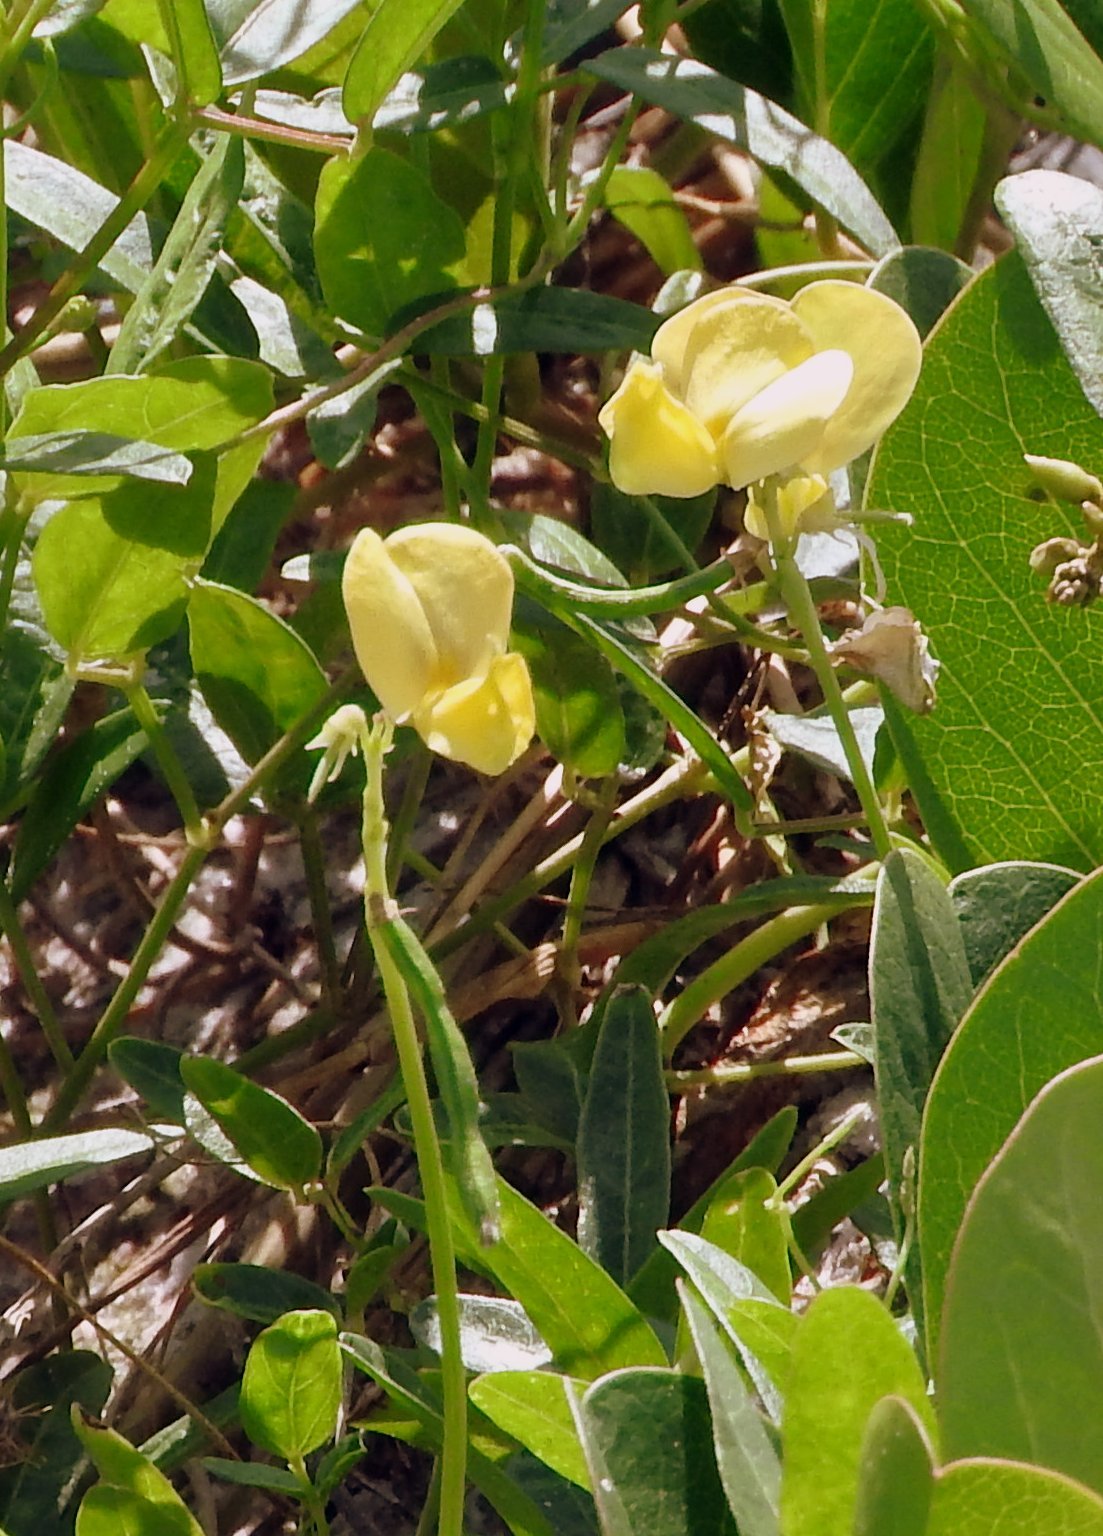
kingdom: Plantae
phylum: Tracheophyta
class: Magnoliopsida
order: Fabales
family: Fabaceae
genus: Vigna
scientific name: Vigna luteola
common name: Hairypod cowpea
